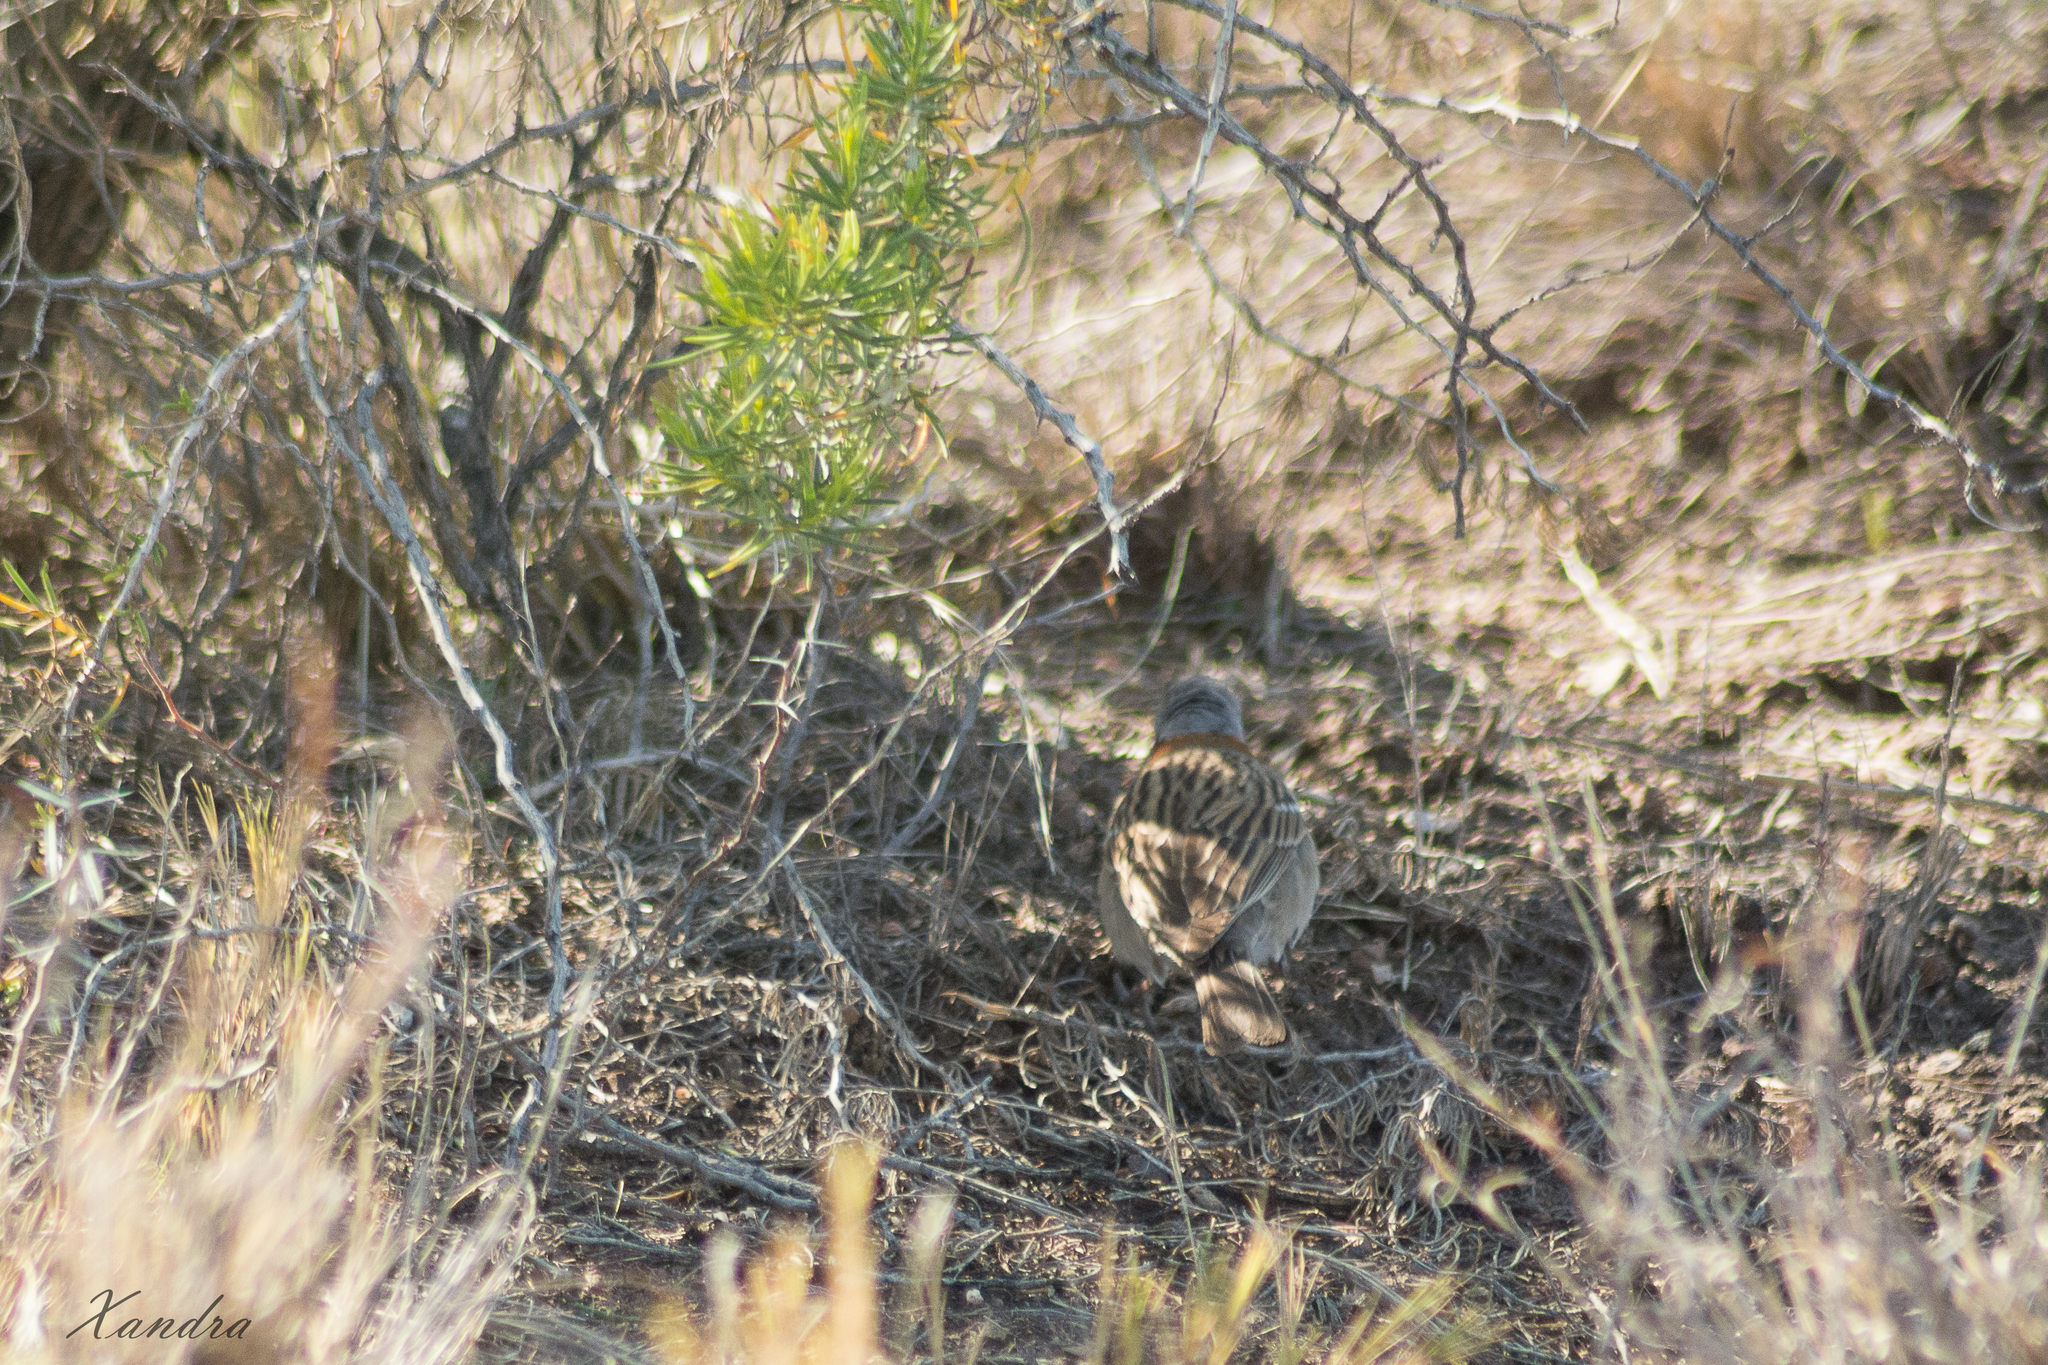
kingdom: Animalia
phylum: Chordata
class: Aves
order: Passeriformes
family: Passerellidae
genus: Zonotrichia
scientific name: Zonotrichia capensis
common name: Rufous-collared sparrow
